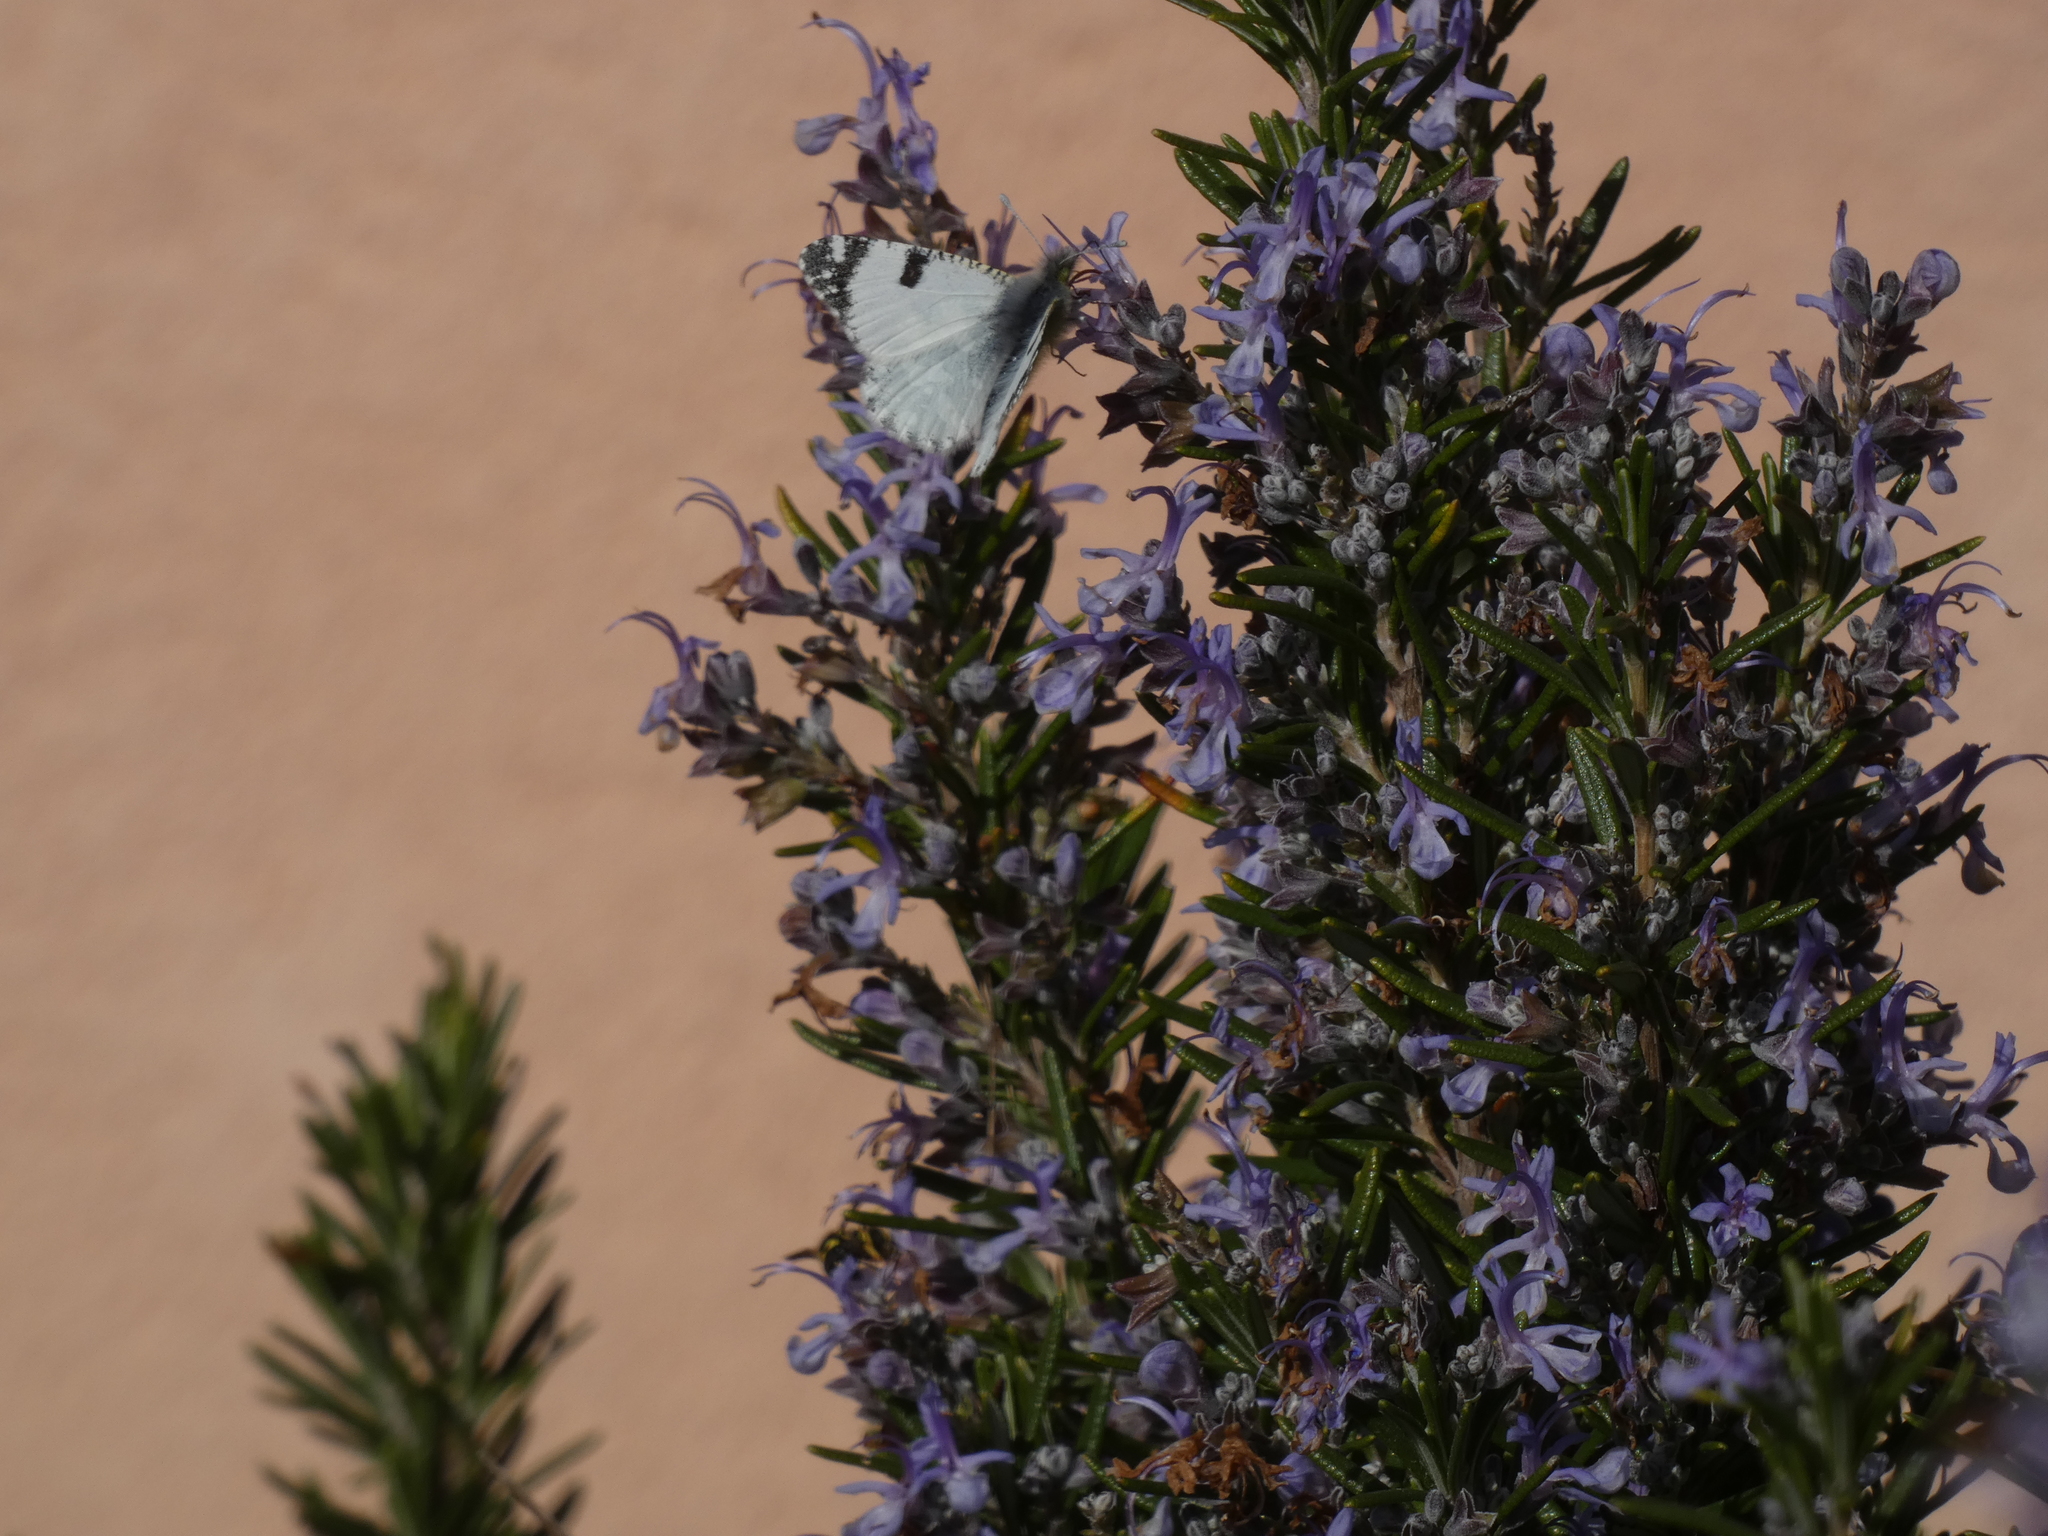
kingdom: Animalia
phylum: Arthropoda
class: Insecta
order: Lepidoptera
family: Pieridae
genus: Euchloe
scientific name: Euchloe crameri
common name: Western dappled white
